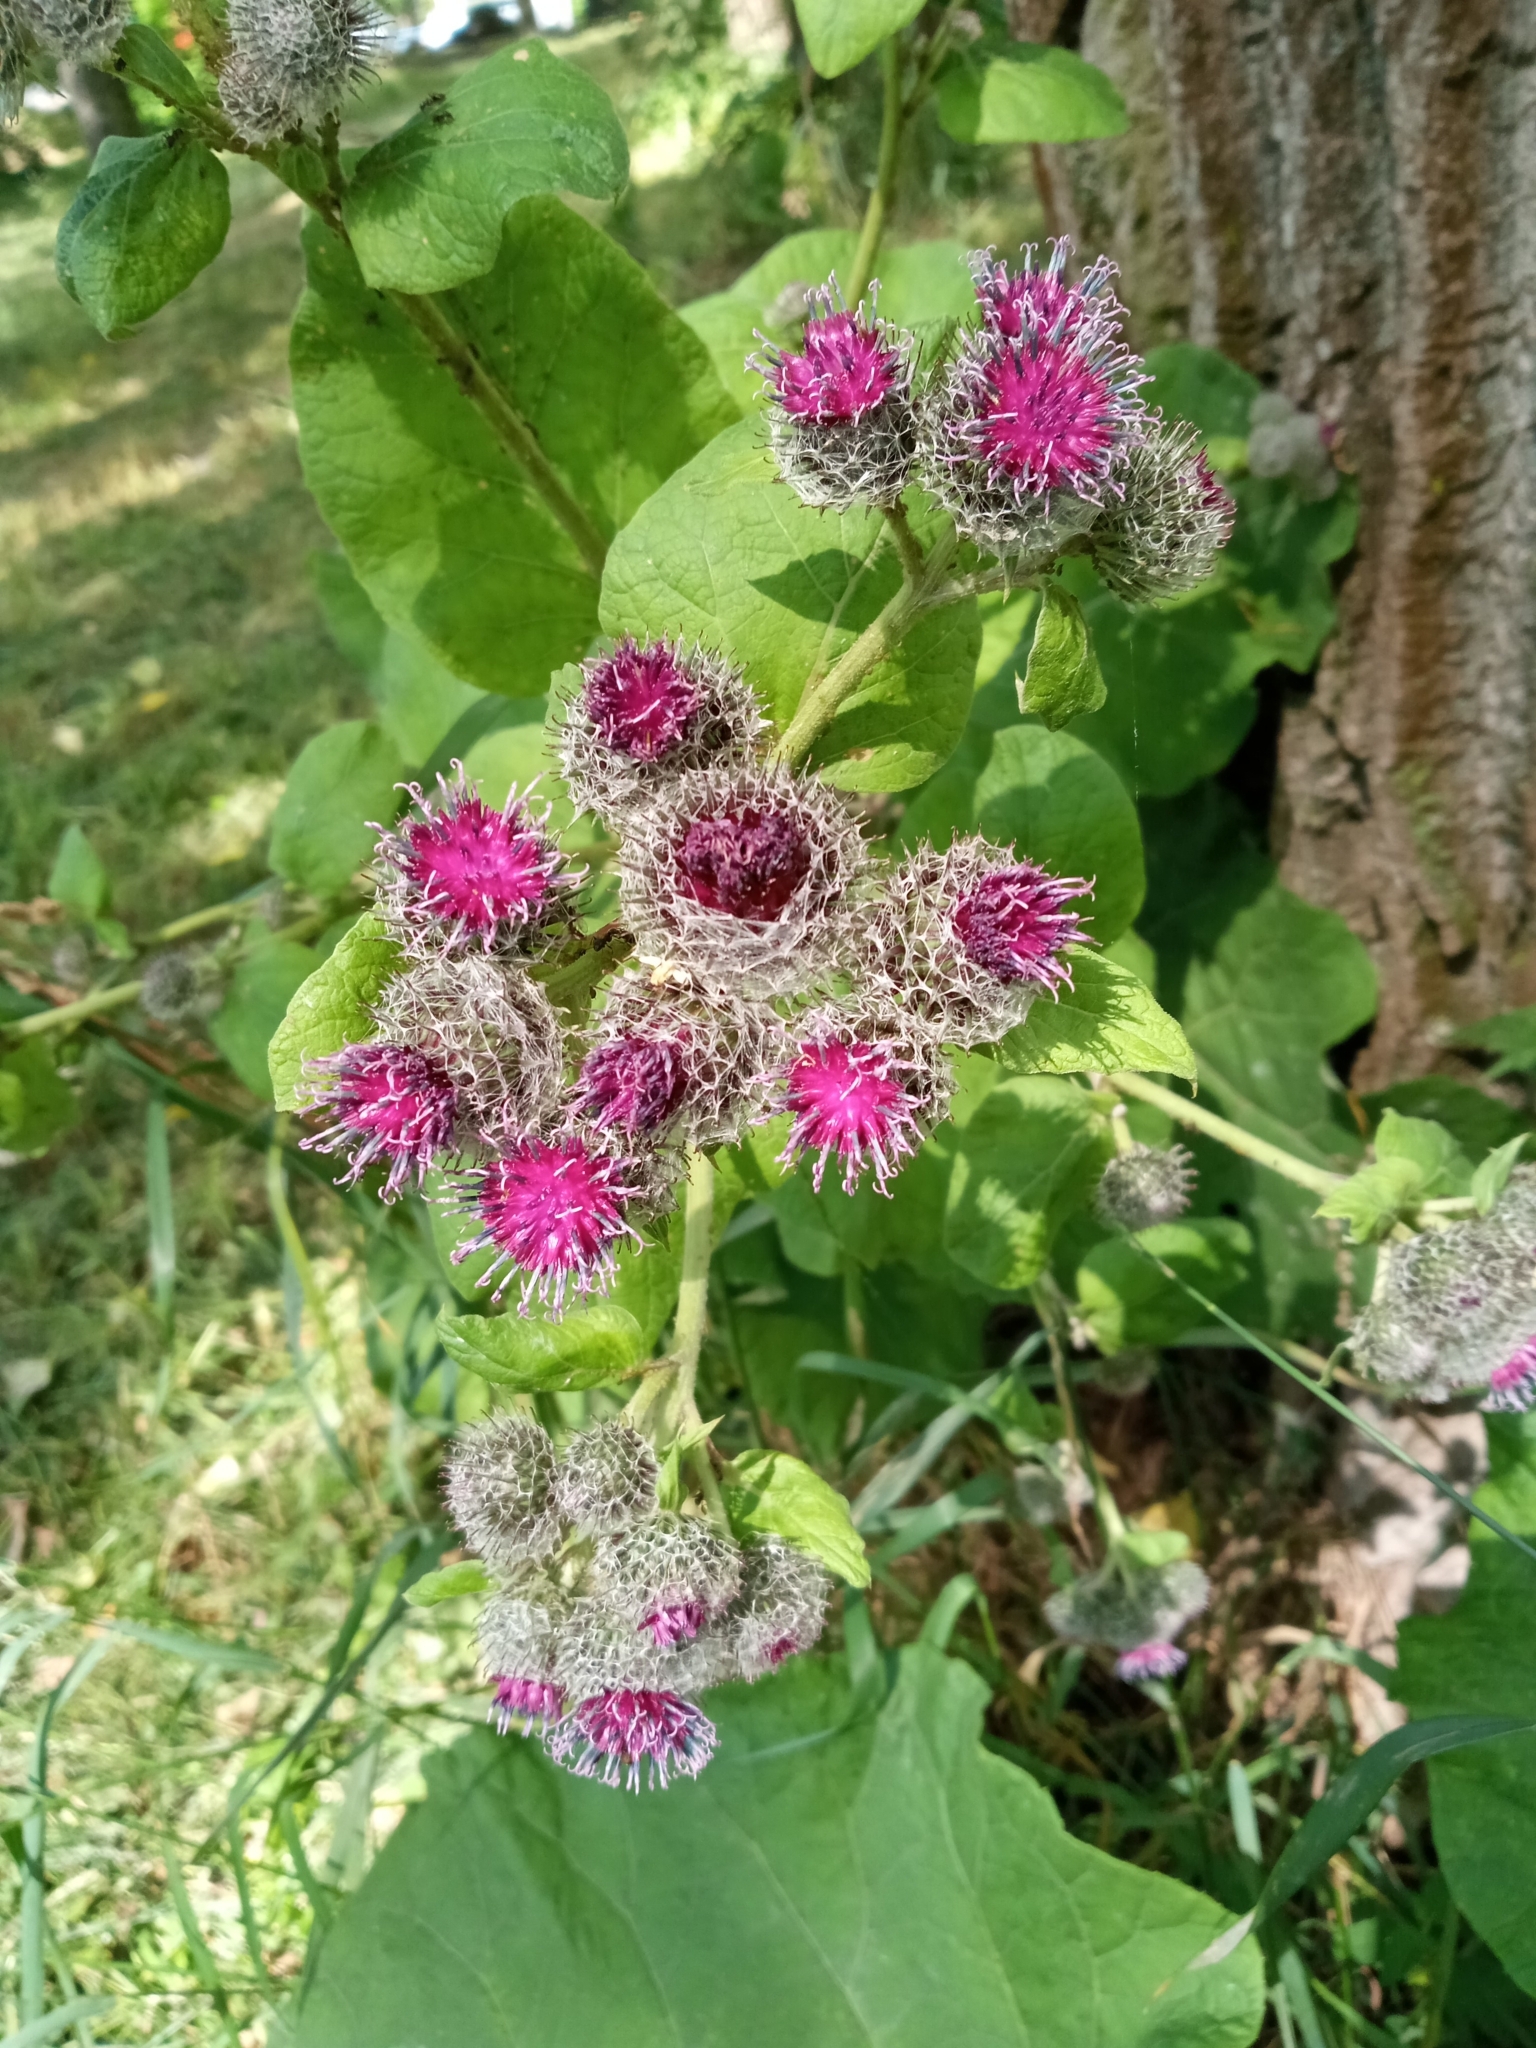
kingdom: Plantae
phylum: Tracheophyta
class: Magnoliopsida
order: Asterales
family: Asteraceae
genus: Arctium
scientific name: Arctium tomentosum
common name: Woolly burdock
